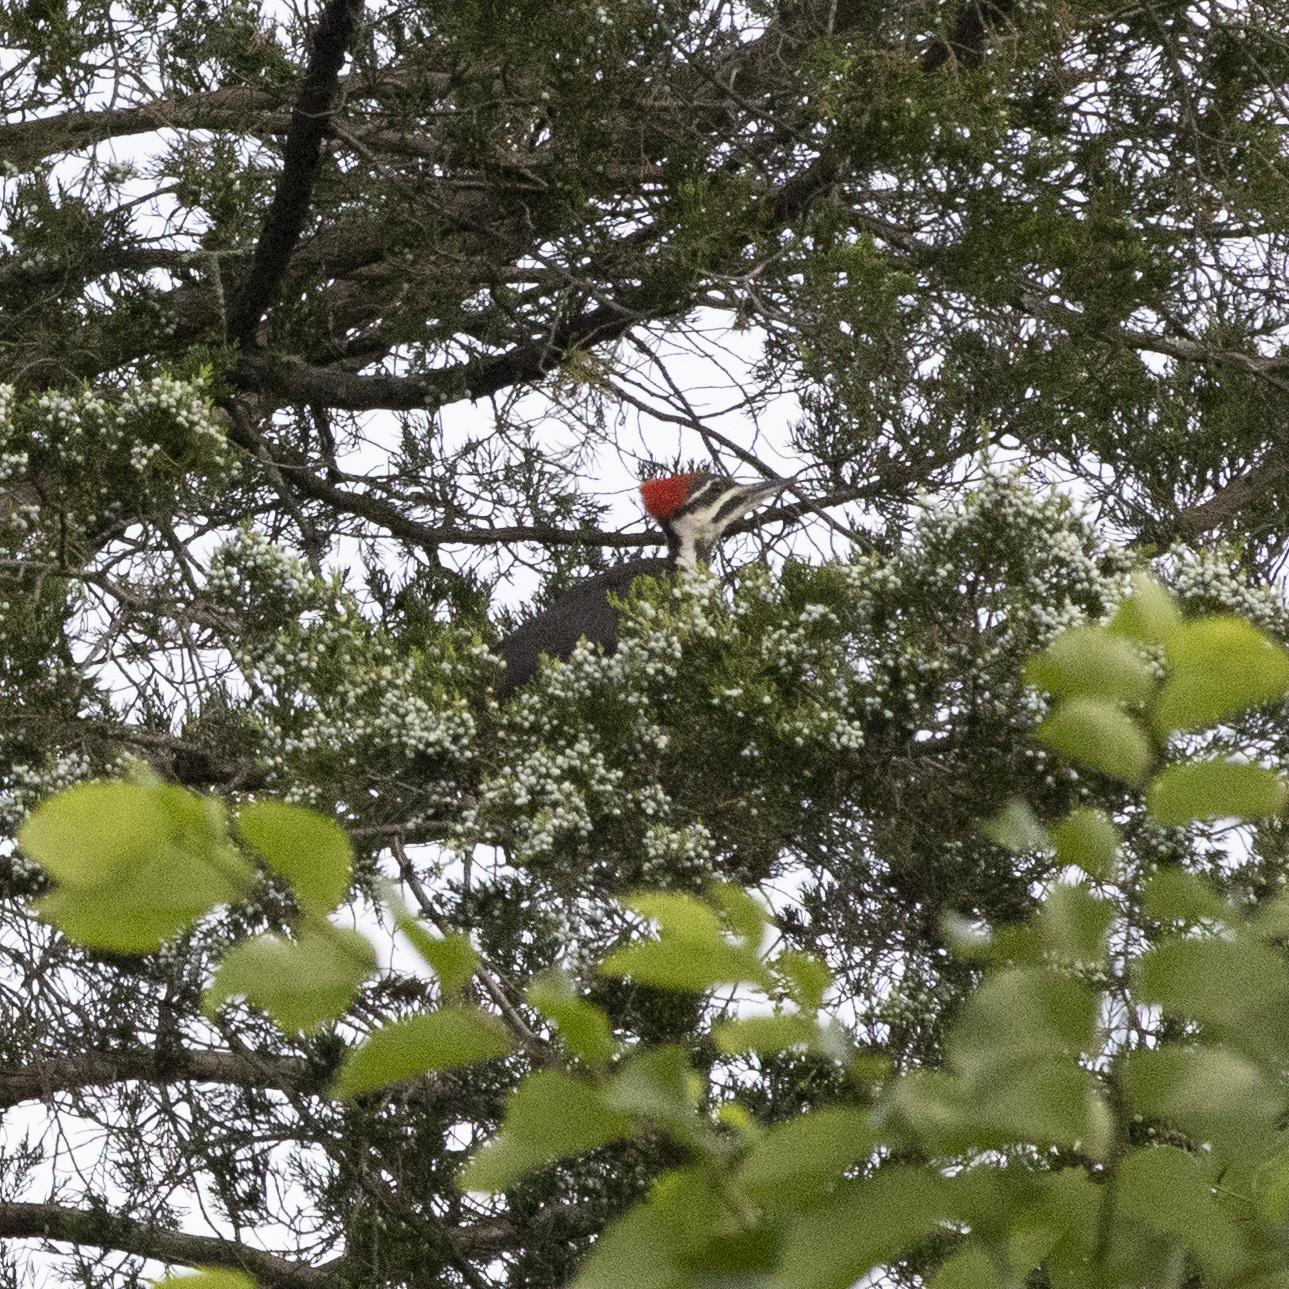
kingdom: Animalia
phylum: Chordata
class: Aves
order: Piciformes
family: Picidae
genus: Dryocopus
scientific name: Dryocopus pileatus
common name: Pileated woodpecker
